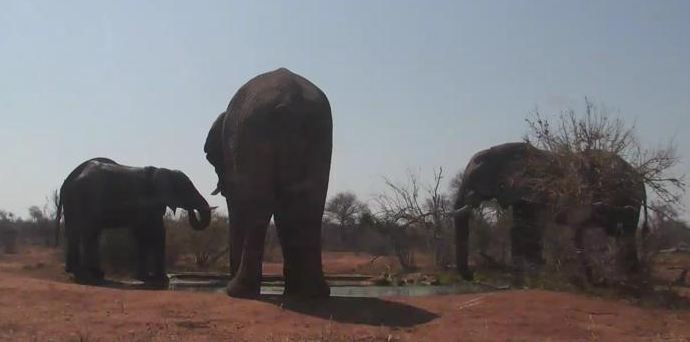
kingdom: Animalia
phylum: Chordata
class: Mammalia
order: Proboscidea
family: Elephantidae
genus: Loxodonta
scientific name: Loxodonta africana
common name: African elephant
